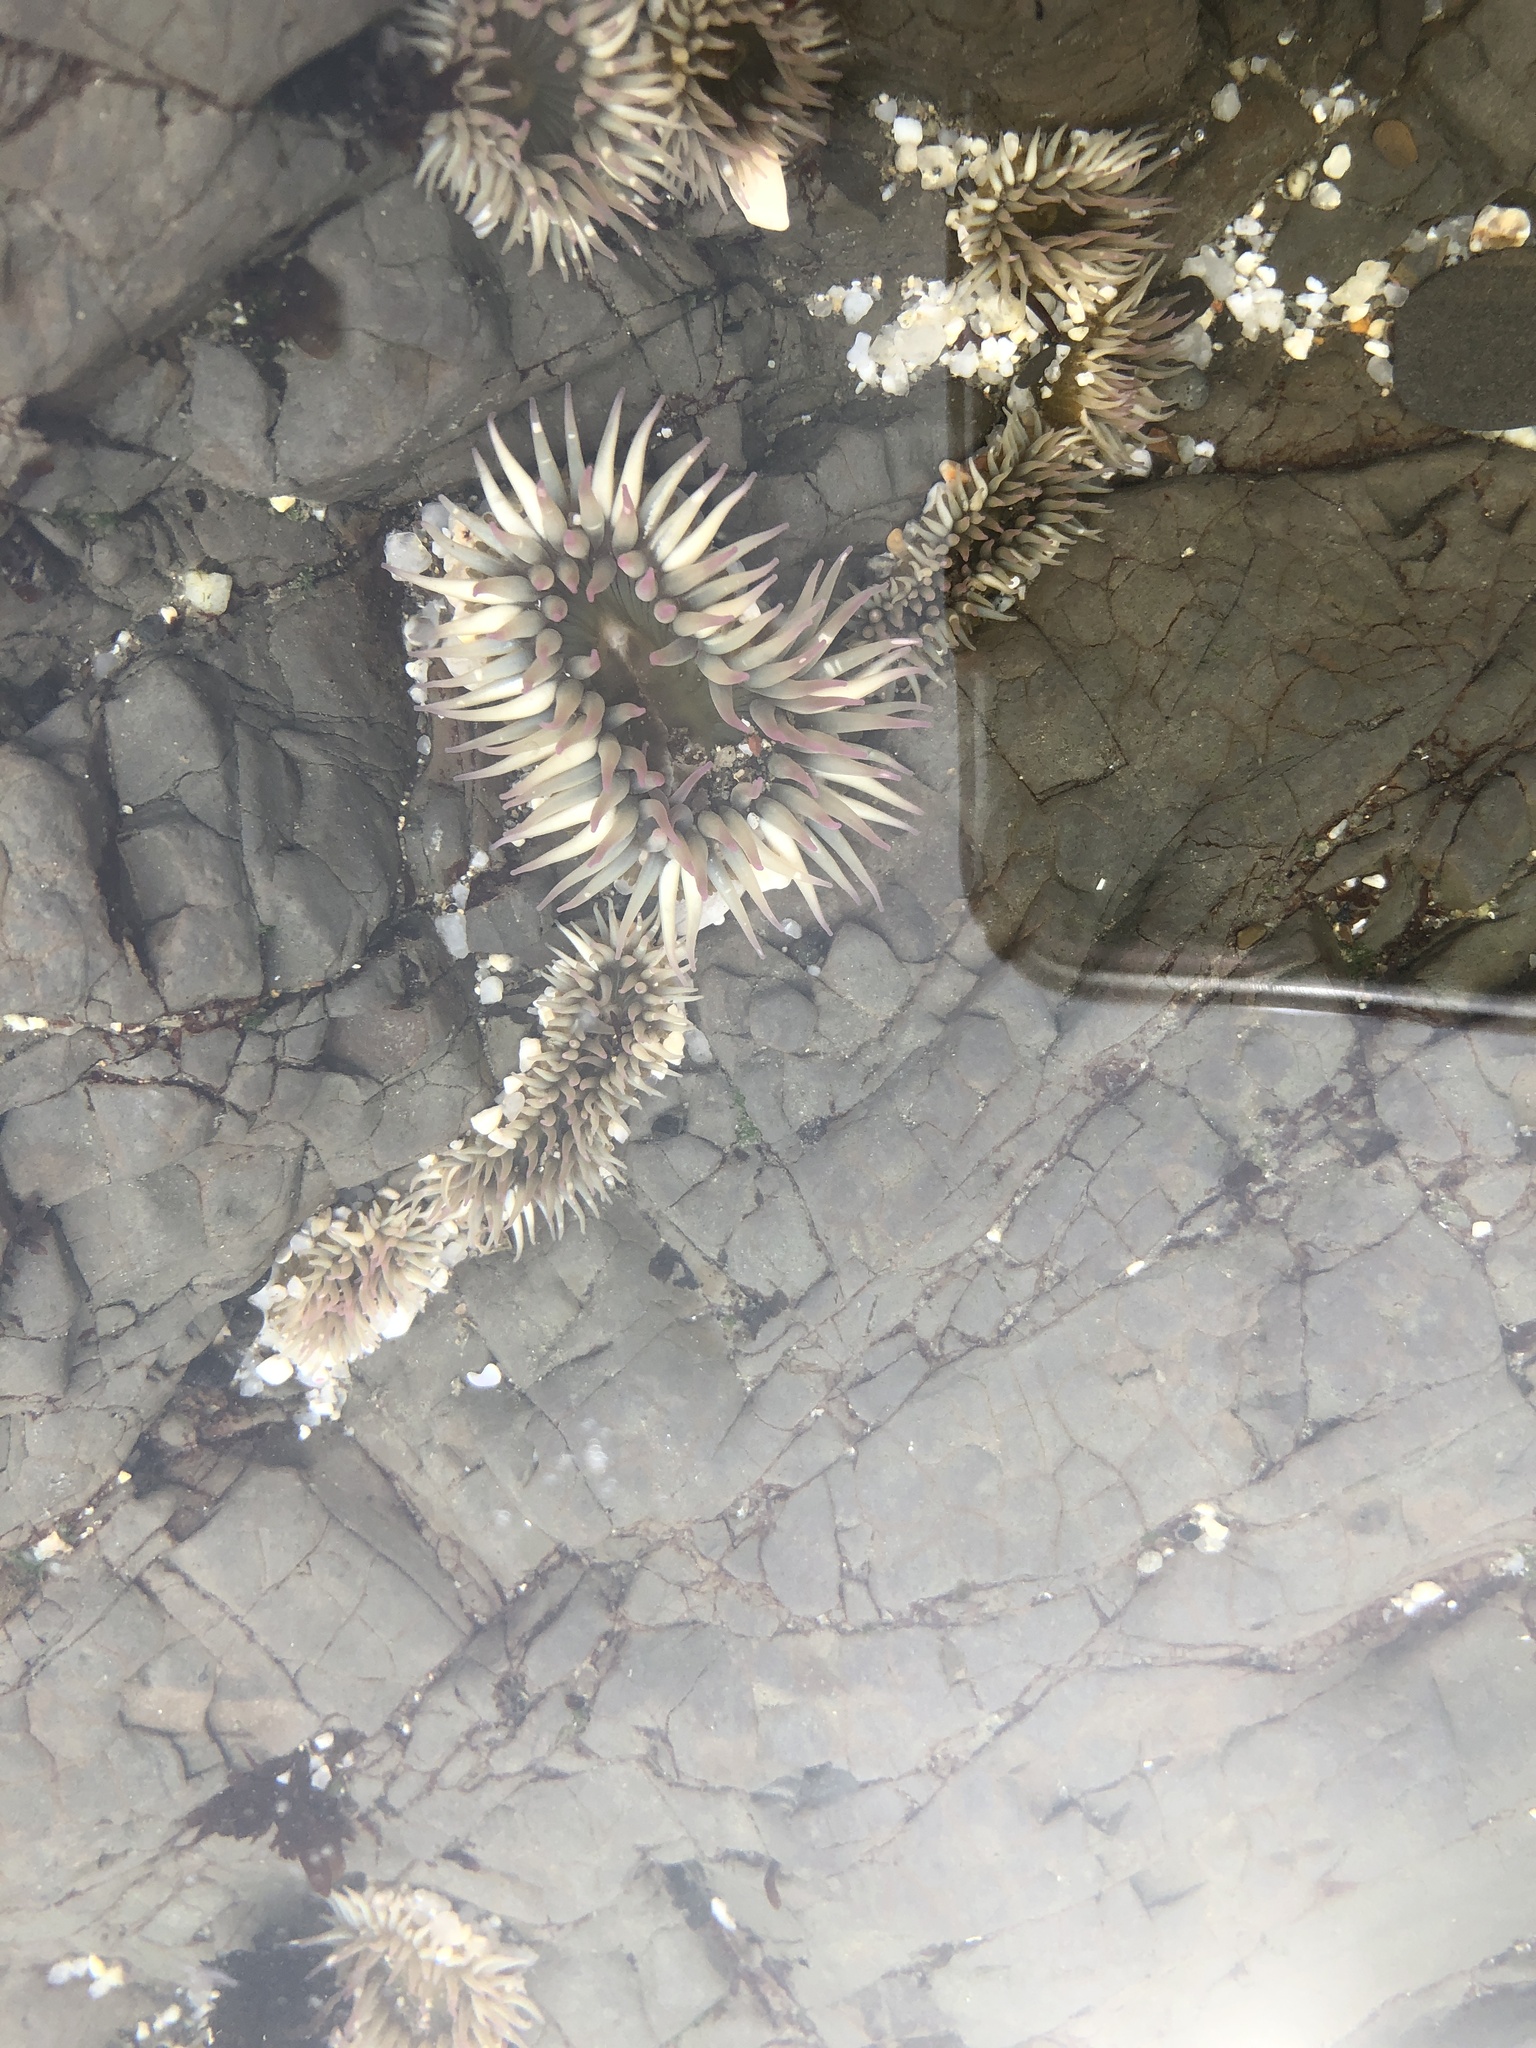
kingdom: Animalia
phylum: Cnidaria
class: Anthozoa
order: Actiniaria
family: Actiniidae
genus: Anthopleura
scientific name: Anthopleura elegantissima
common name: Clonal anemone
